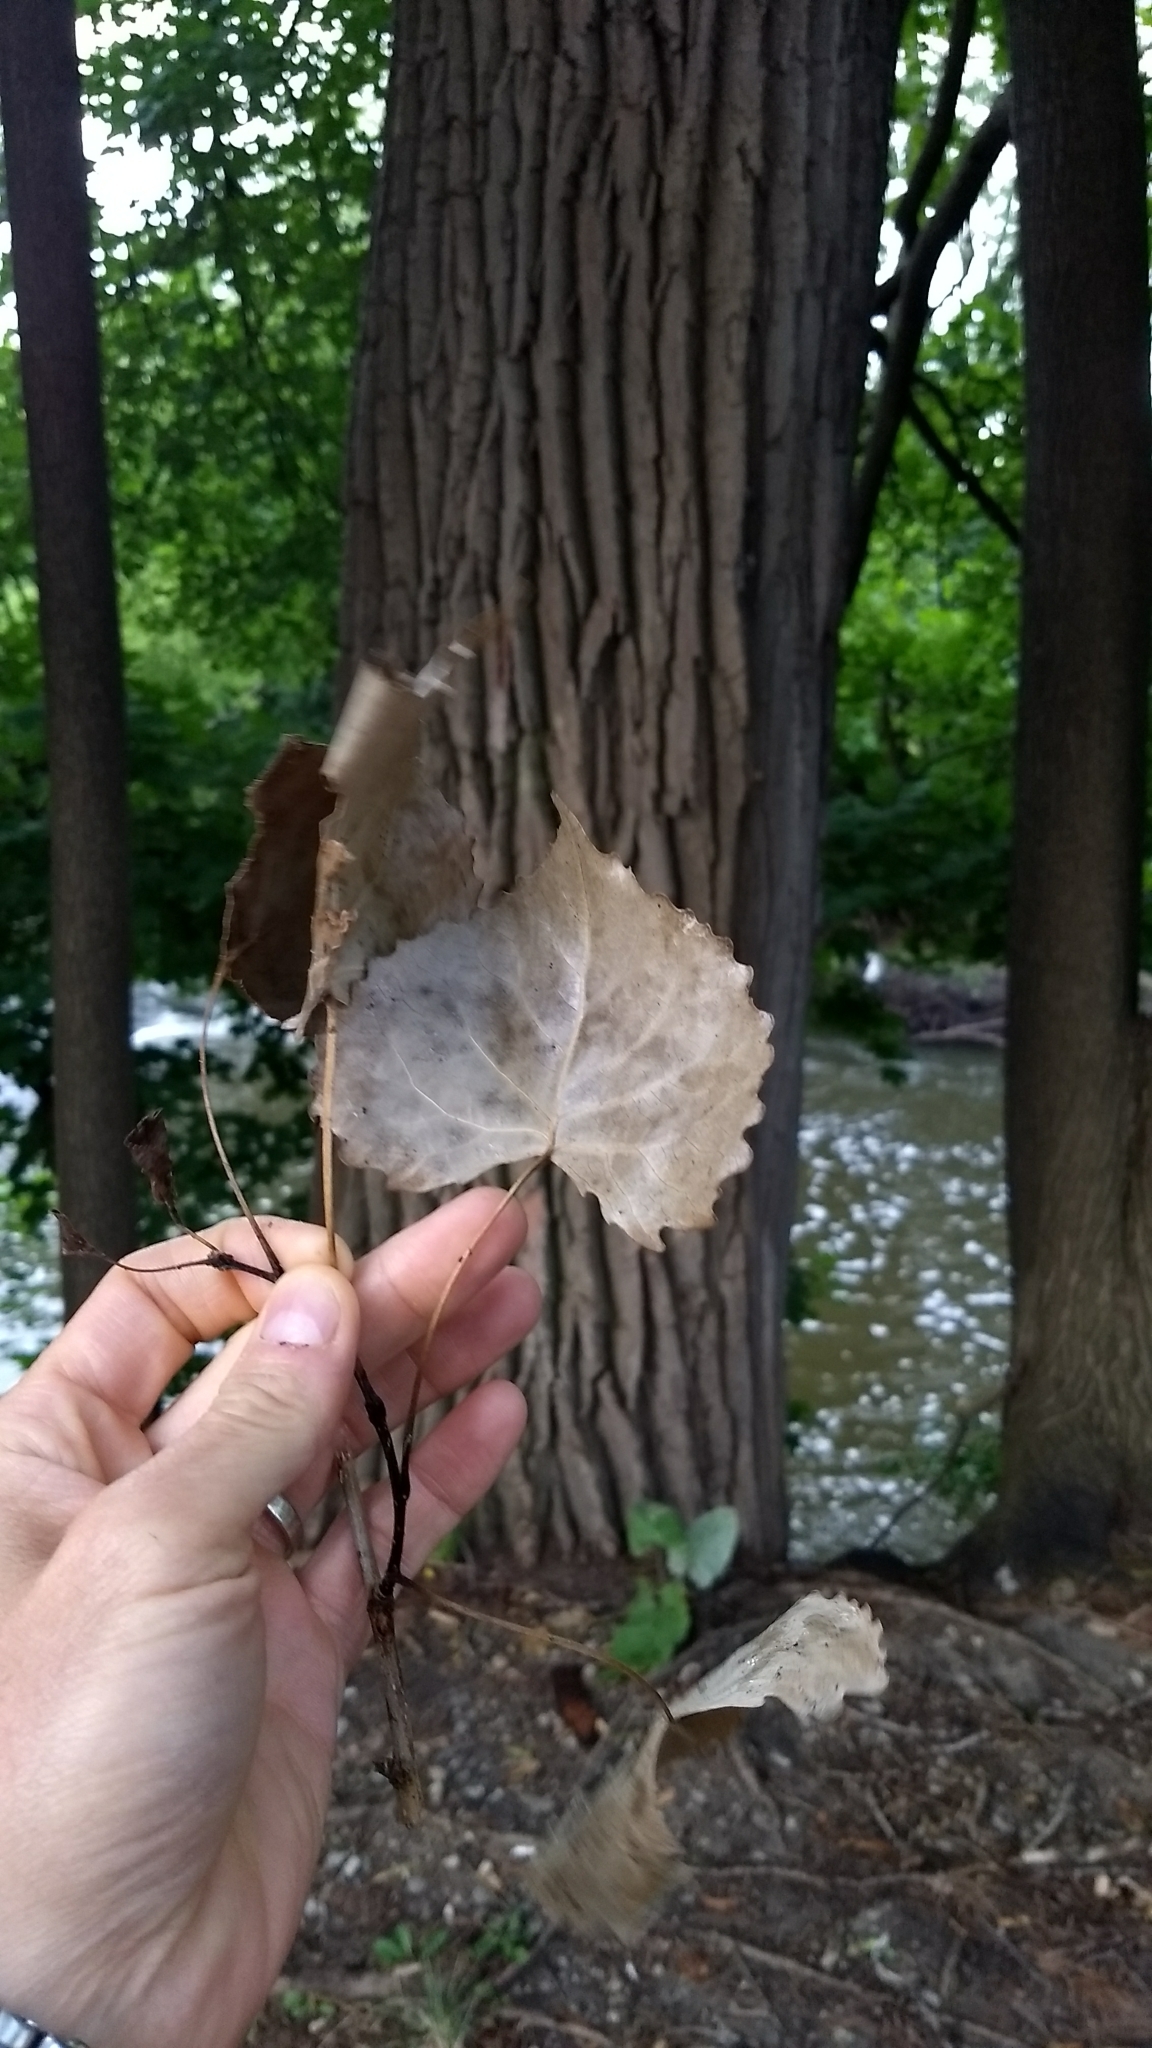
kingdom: Plantae
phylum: Tracheophyta
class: Magnoliopsida
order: Malpighiales
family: Salicaceae
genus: Populus
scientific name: Populus deltoides
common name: Eastern cottonwood
